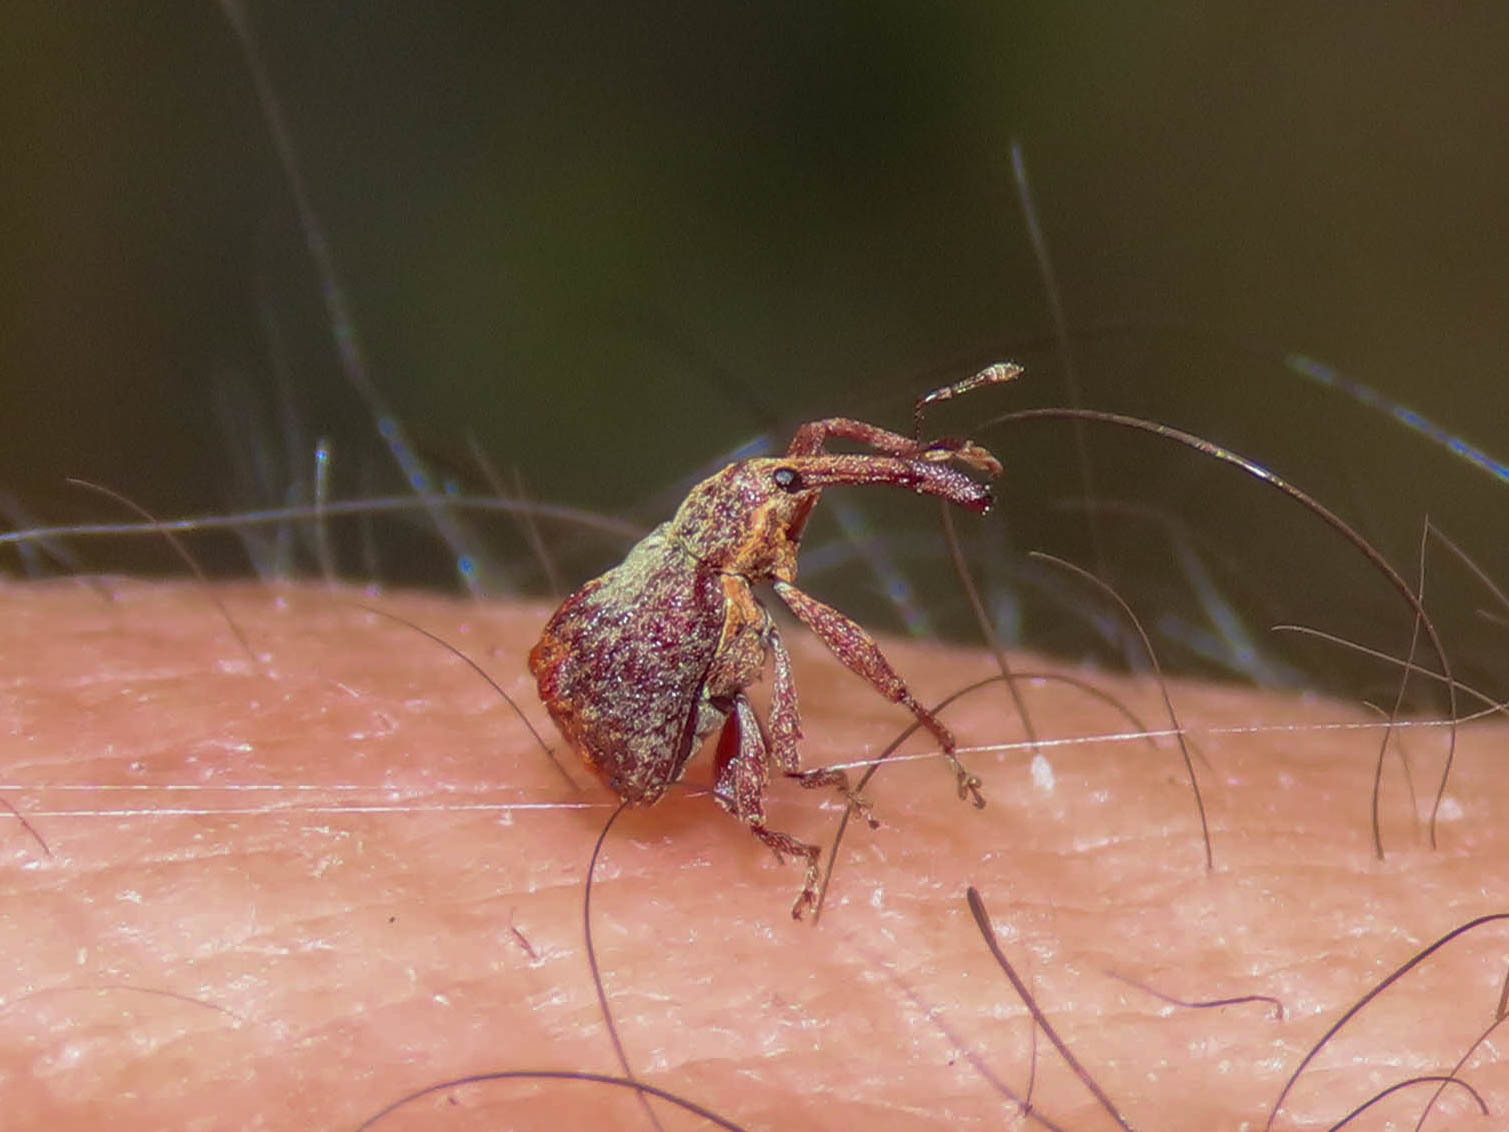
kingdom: Animalia
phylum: Arthropoda
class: Insecta
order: Coleoptera
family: Curculionidae
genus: Anthonomus
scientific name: Anthonomus quadrigibbus
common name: Apple curculio
